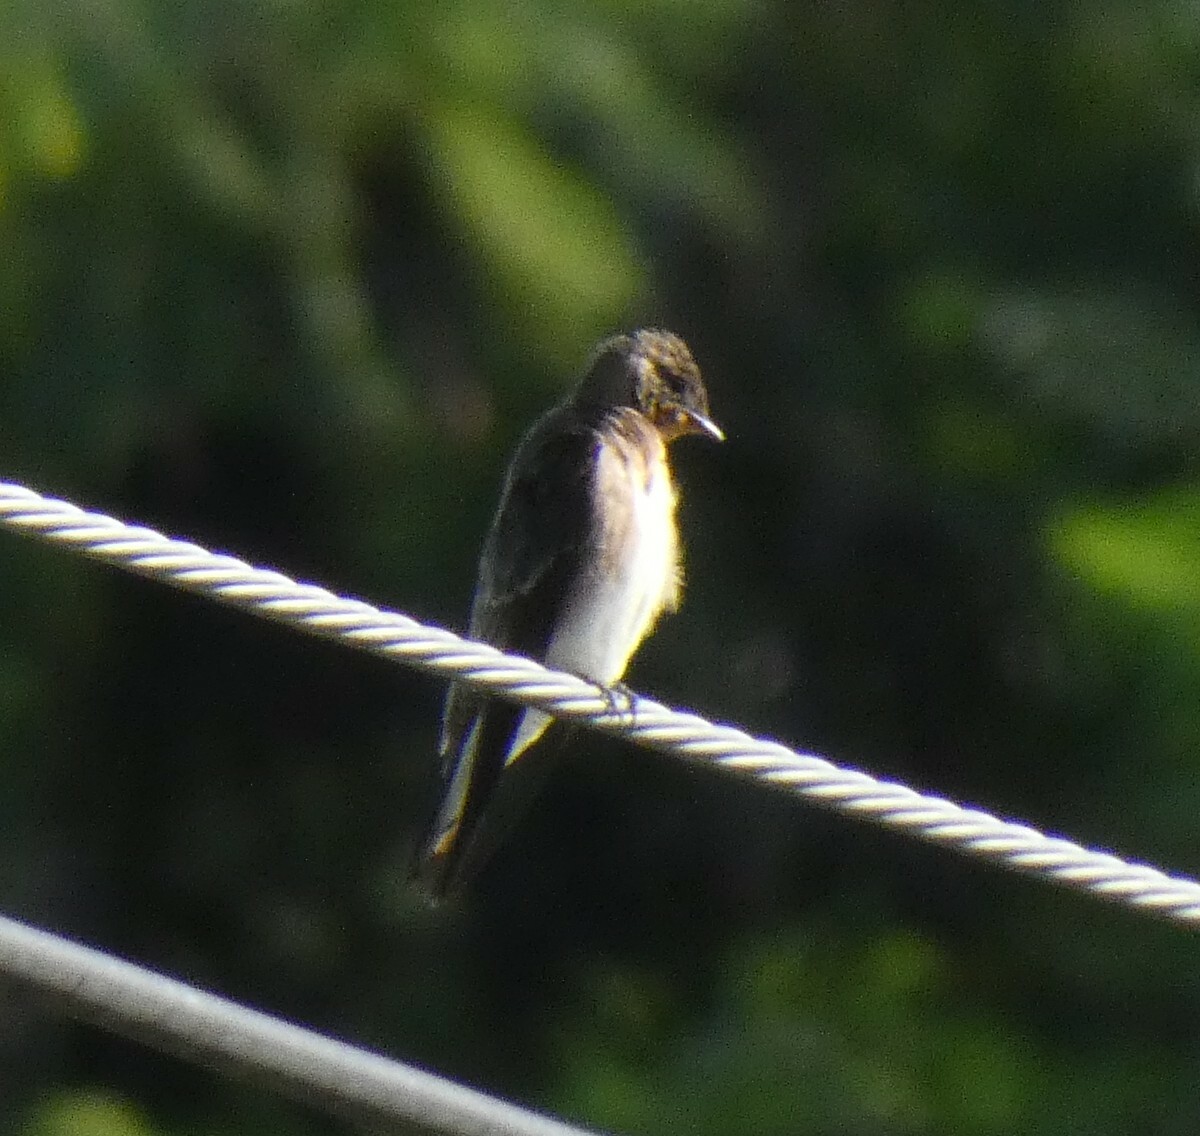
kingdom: Animalia
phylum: Chordata
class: Aves
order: Passeriformes
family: Hirundinidae
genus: Stelgidopteryx
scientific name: Stelgidopteryx ruficollis
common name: Southern rough-winged swallow
